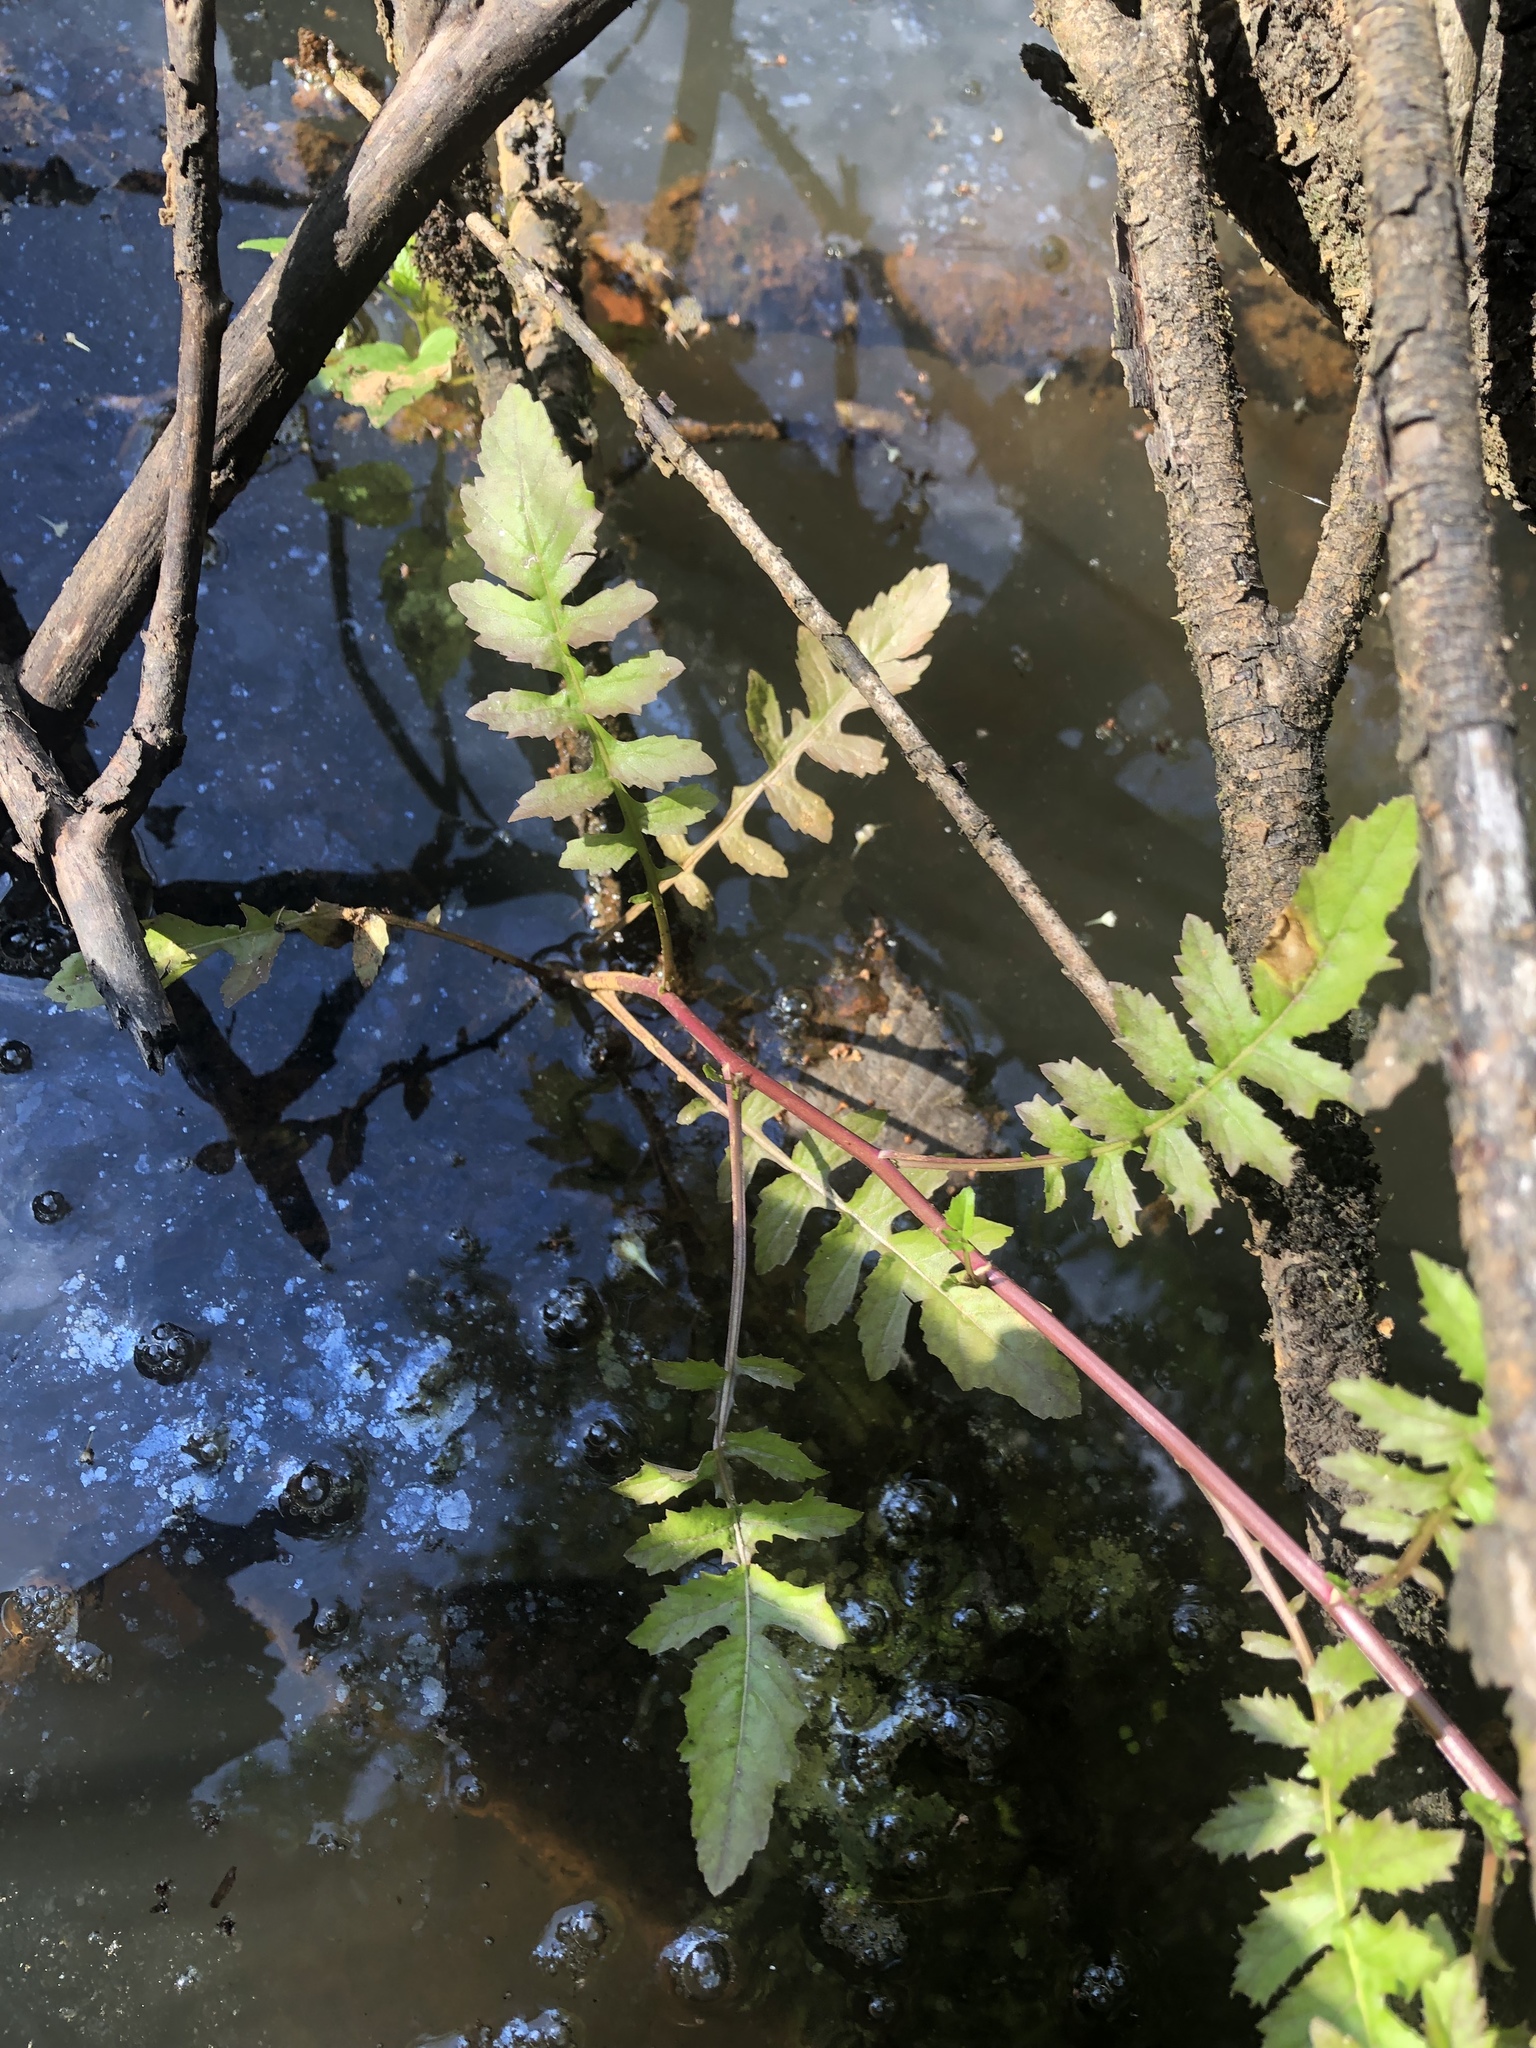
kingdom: Plantae
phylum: Tracheophyta
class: Magnoliopsida
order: Brassicales
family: Brassicaceae
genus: Rorippa
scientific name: Rorippa palustris
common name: Marsh yellow-cress
